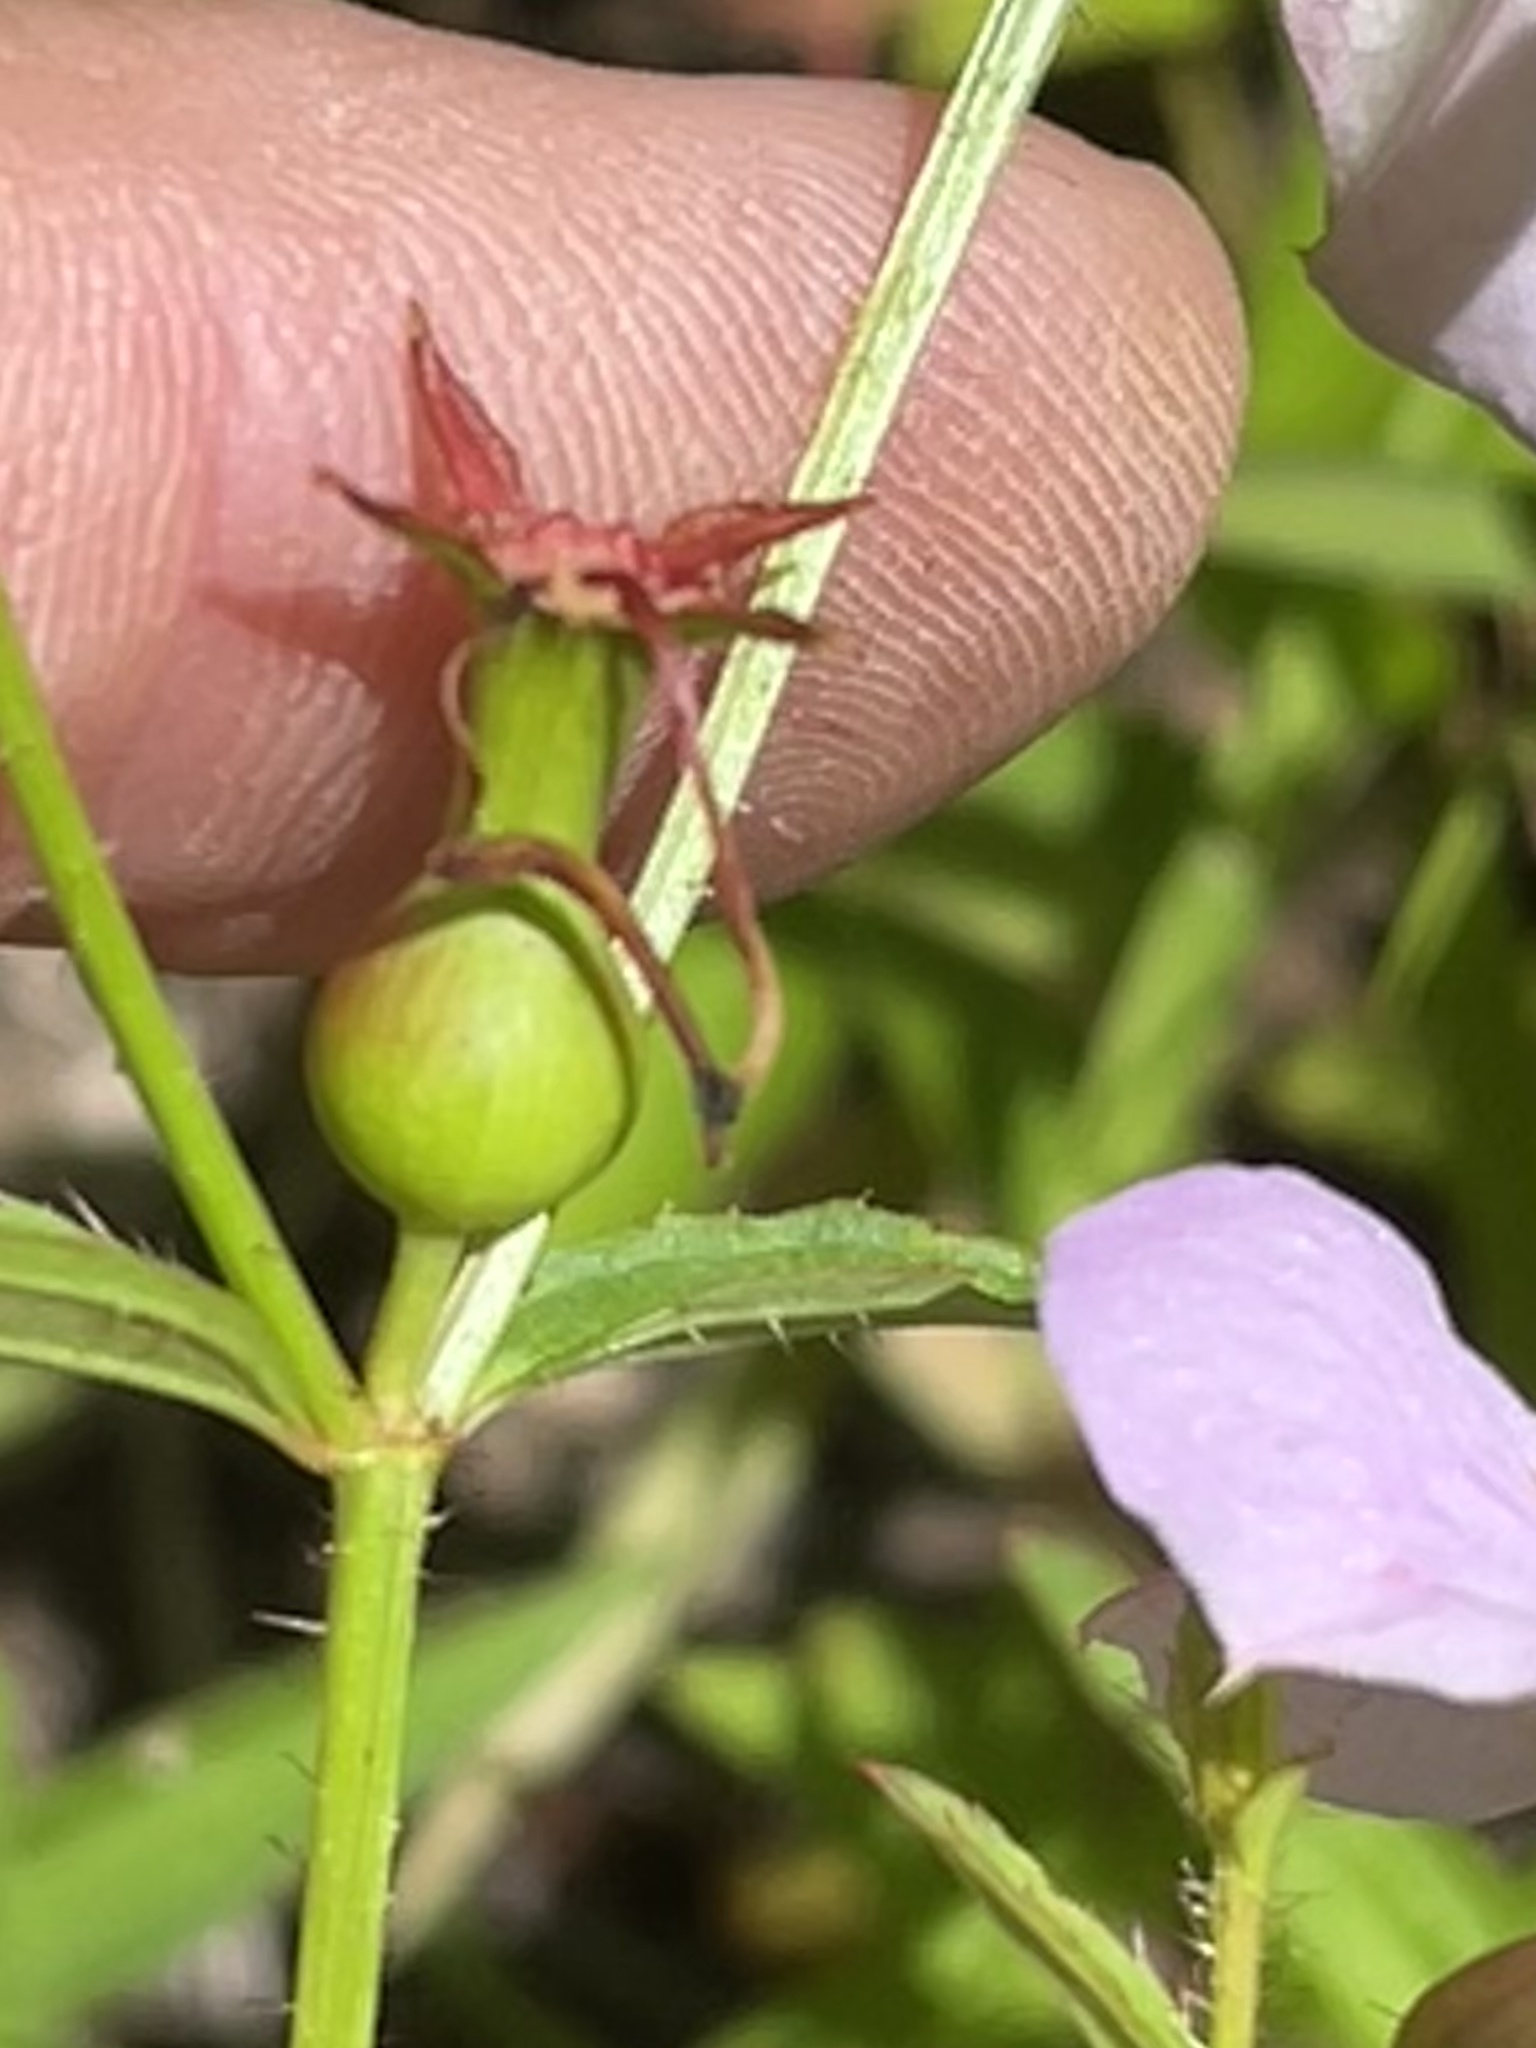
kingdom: Plantae
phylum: Tracheophyta
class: Magnoliopsida
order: Myrtales
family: Melastomataceae
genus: Rhexia
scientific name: Rhexia mariana
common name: Dull meadow-pitcher
